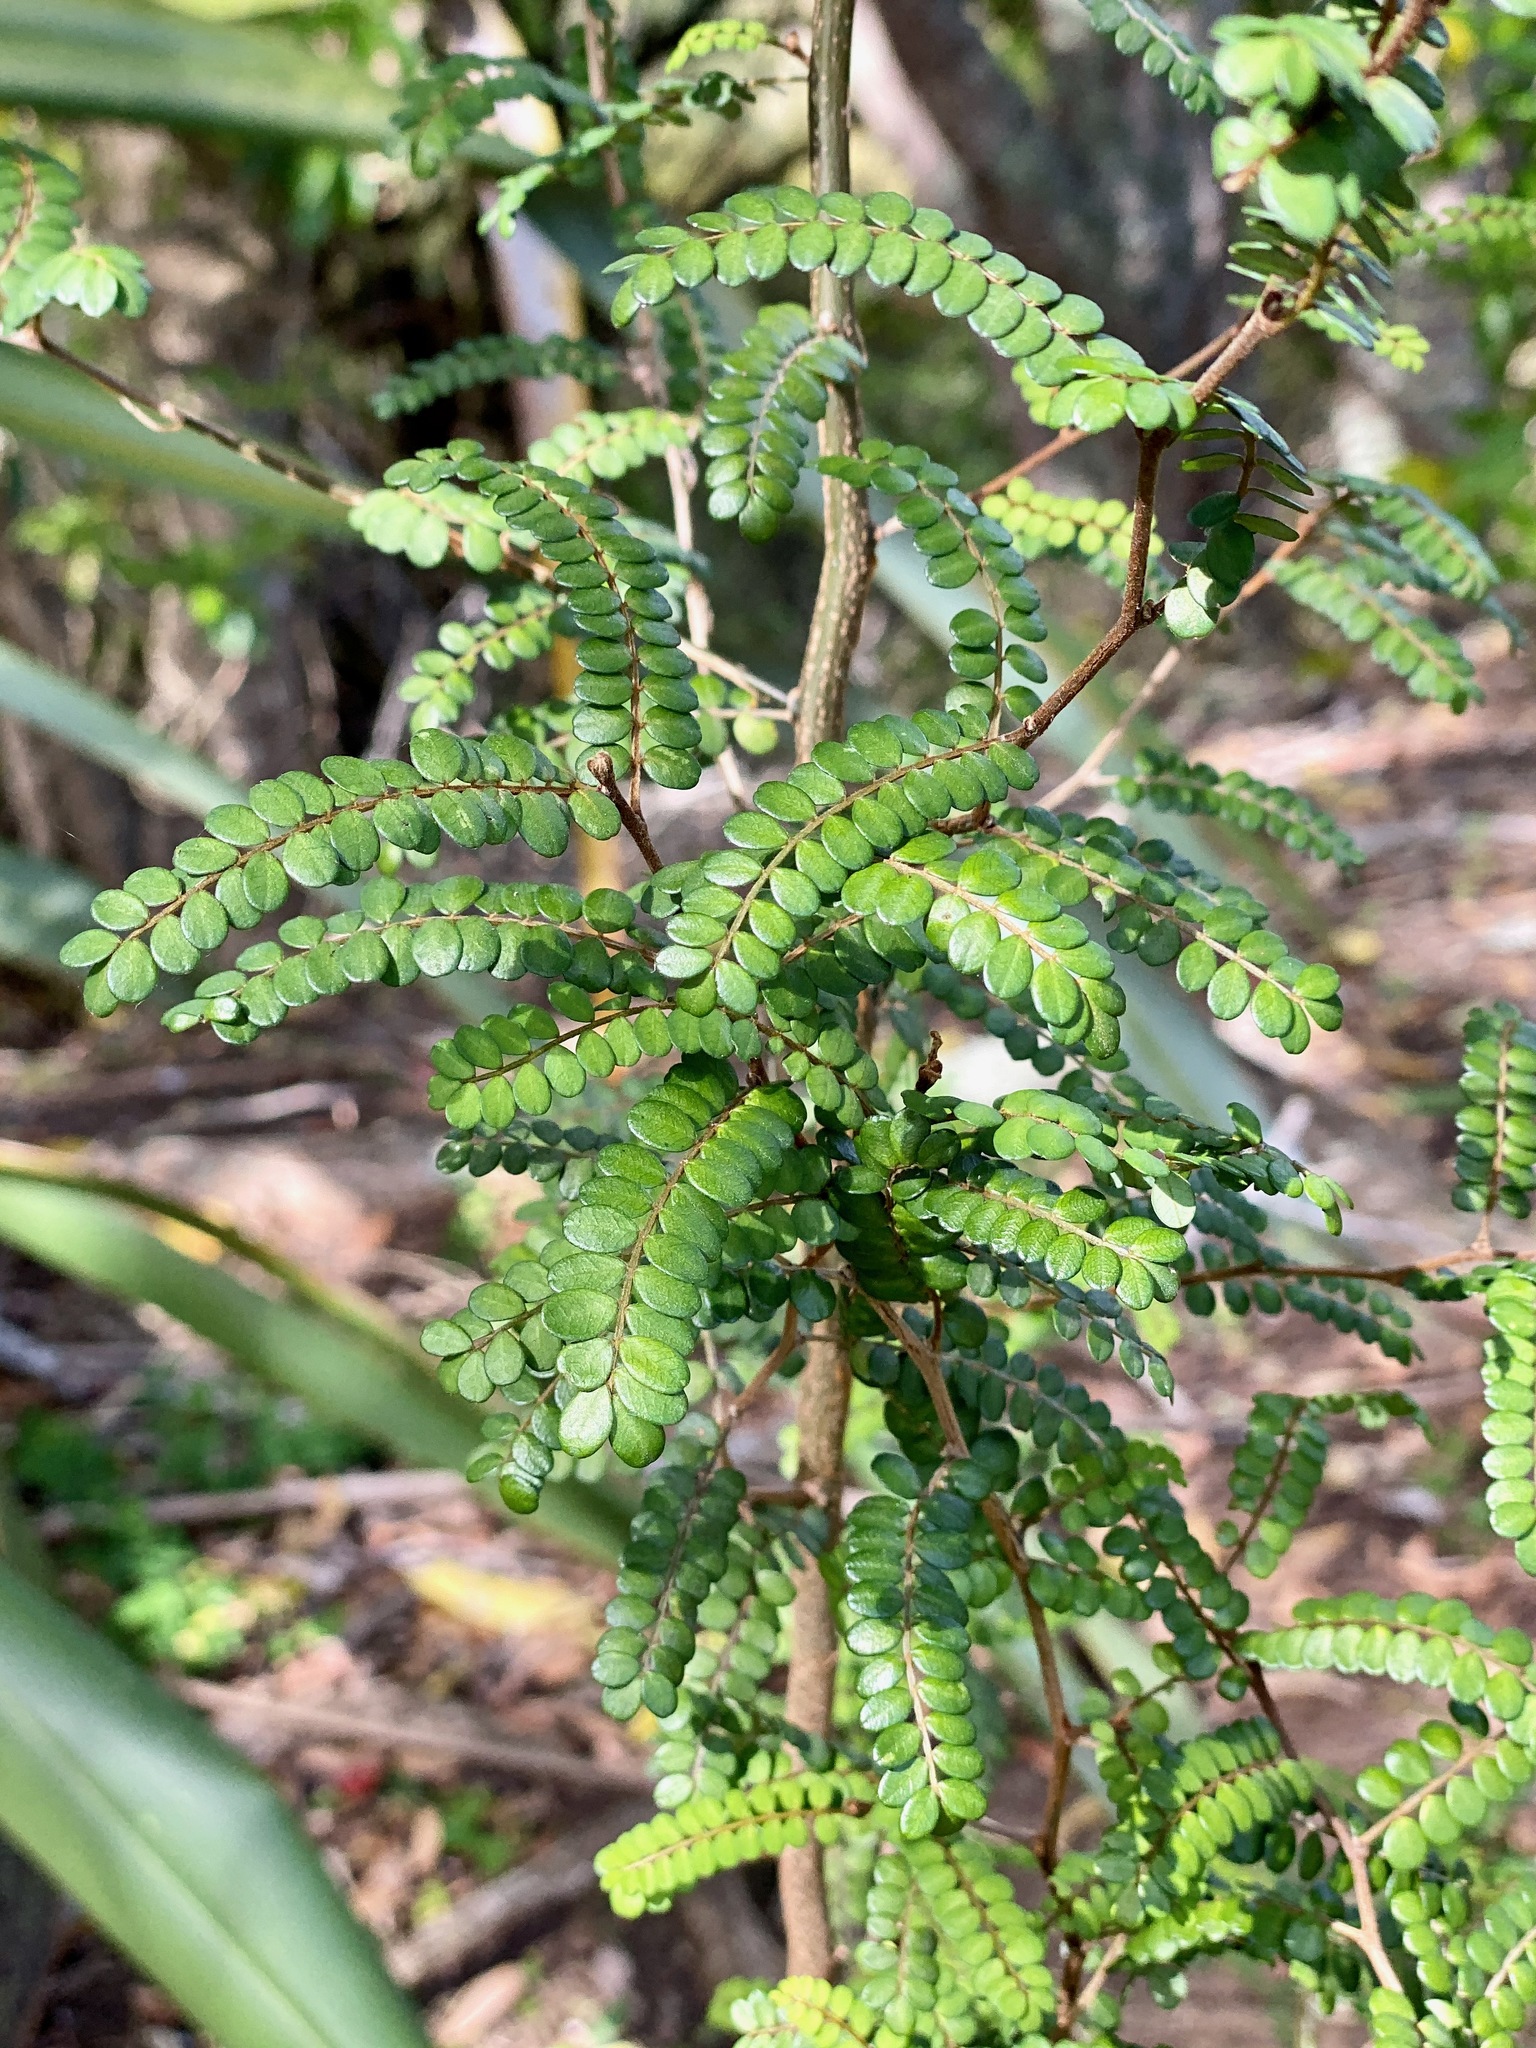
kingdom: Plantae
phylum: Tracheophyta
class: Magnoliopsida
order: Fabales
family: Fabaceae
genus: Sophora
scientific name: Sophora chathamica
